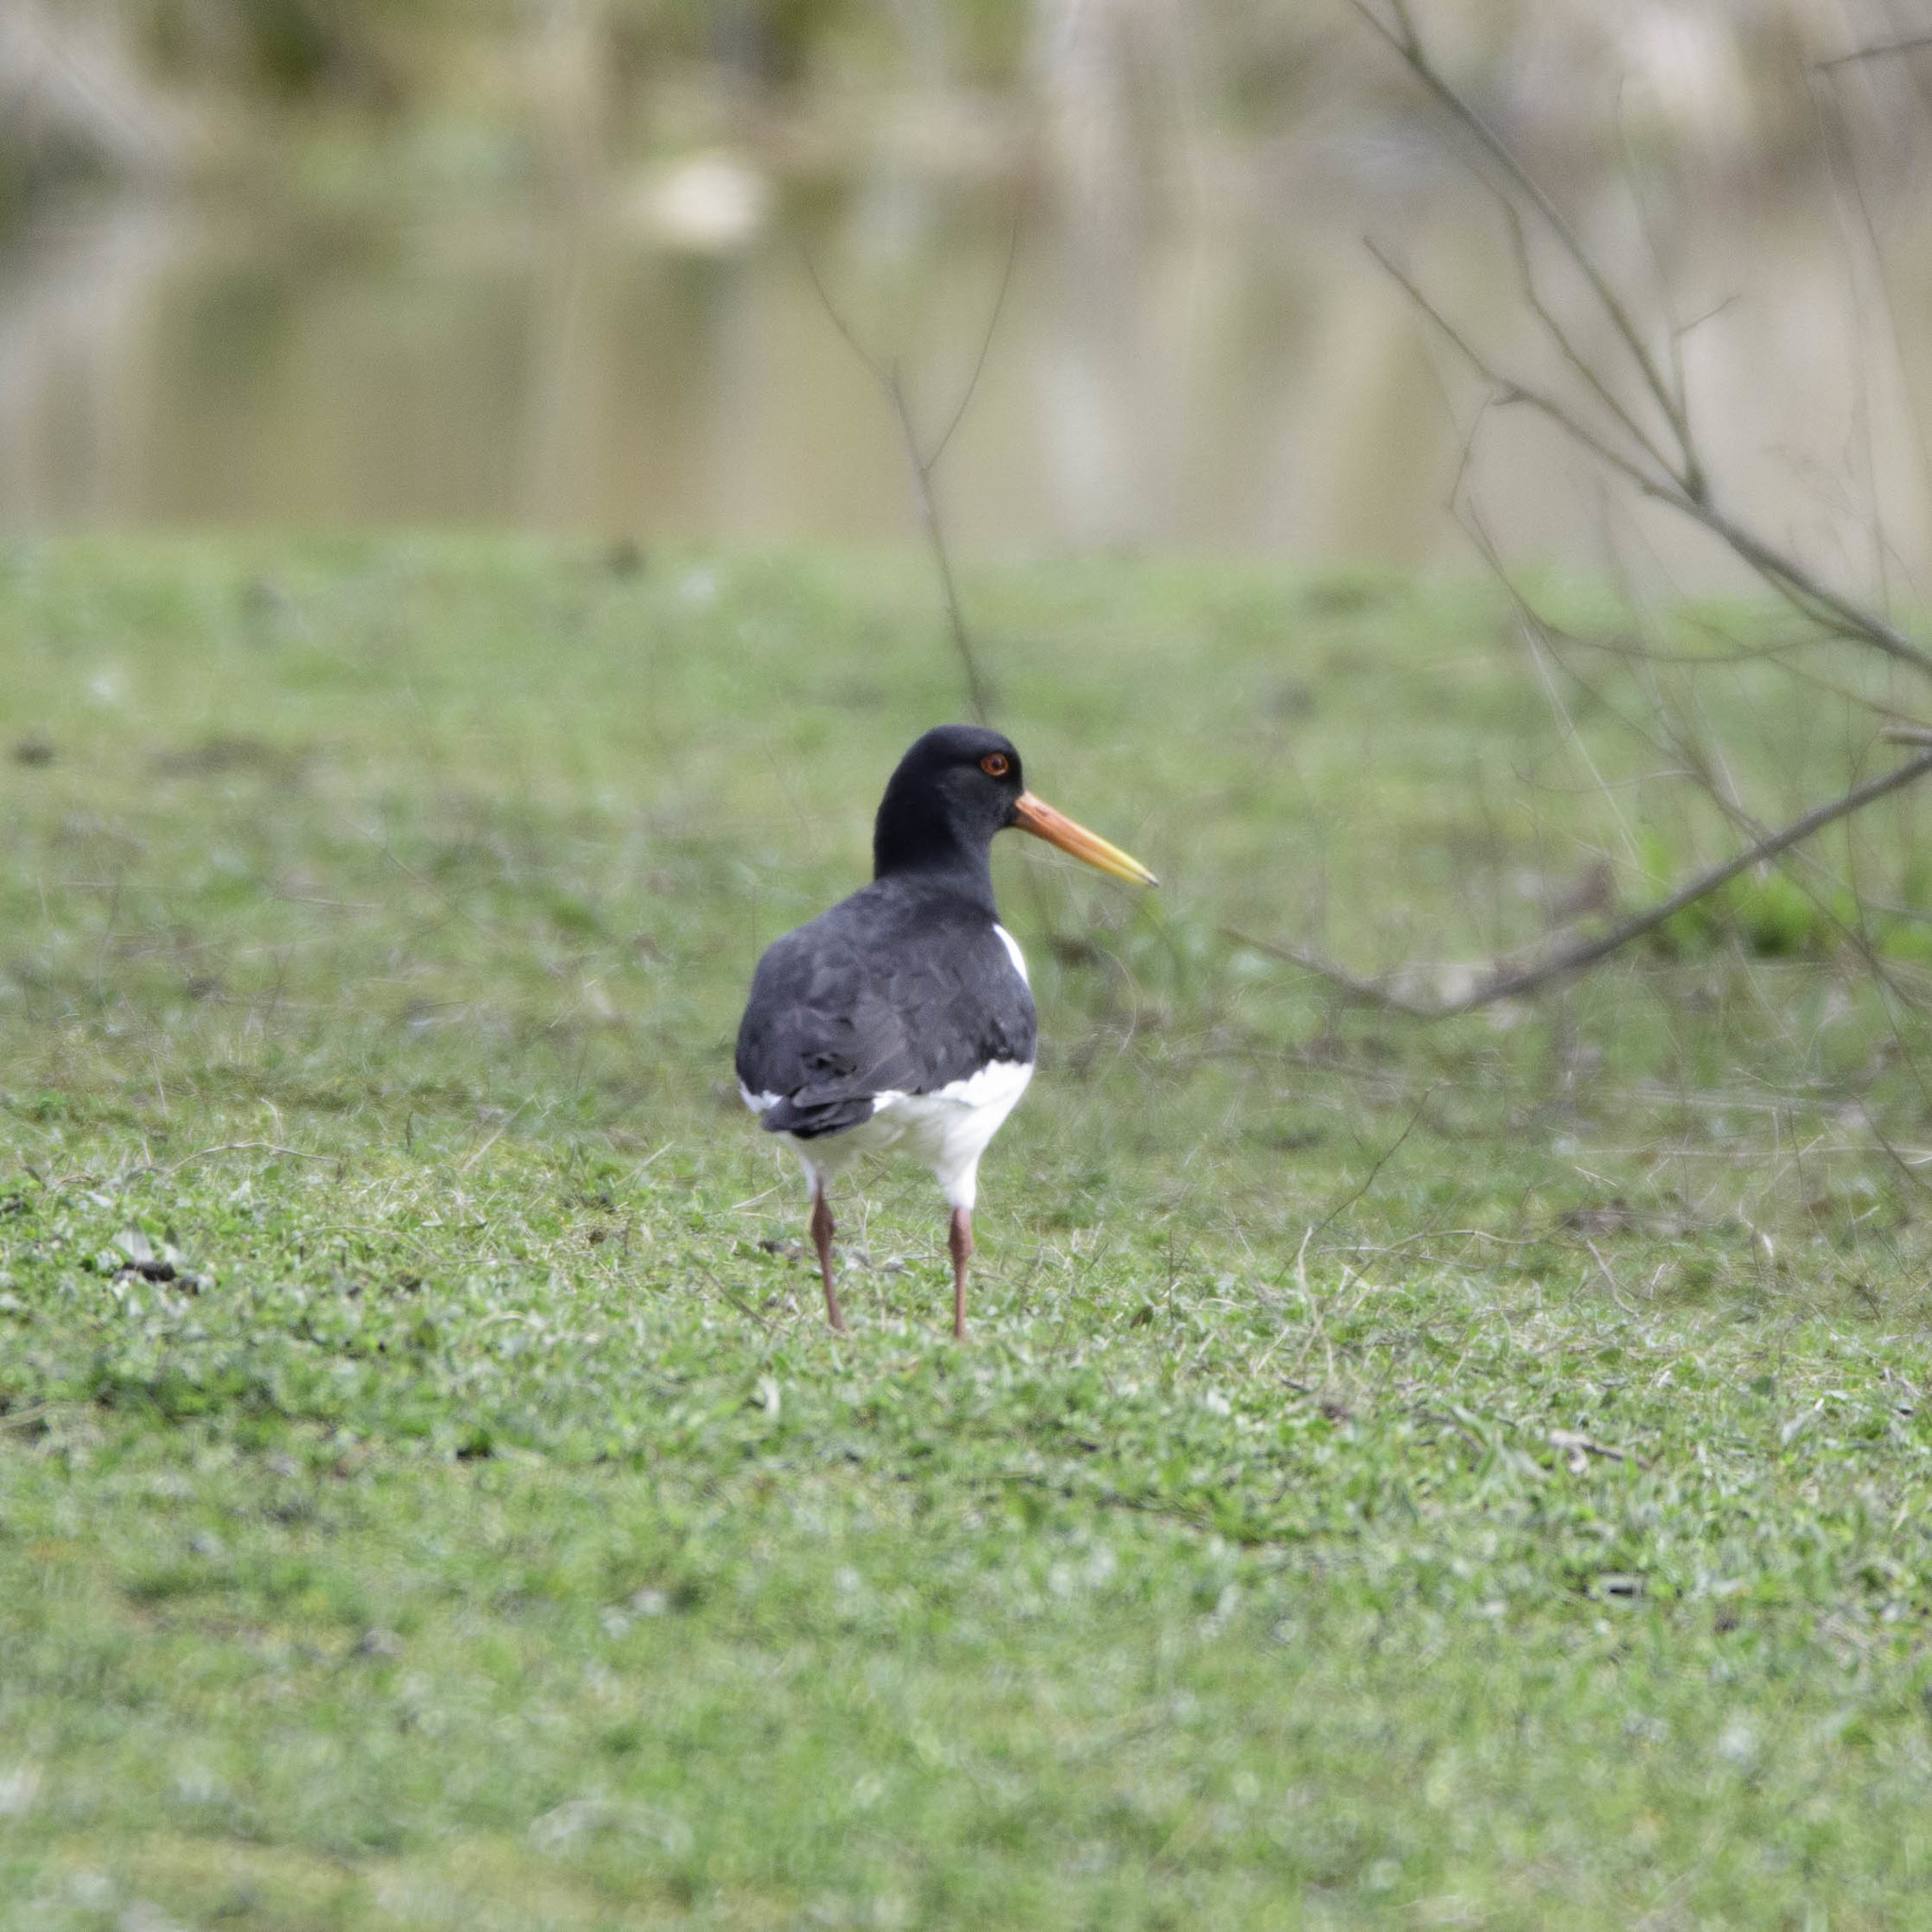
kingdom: Animalia
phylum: Chordata
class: Aves
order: Charadriiformes
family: Haematopodidae
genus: Haematopus
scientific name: Haematopus ostralegus
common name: Eurasian oystercatcher
